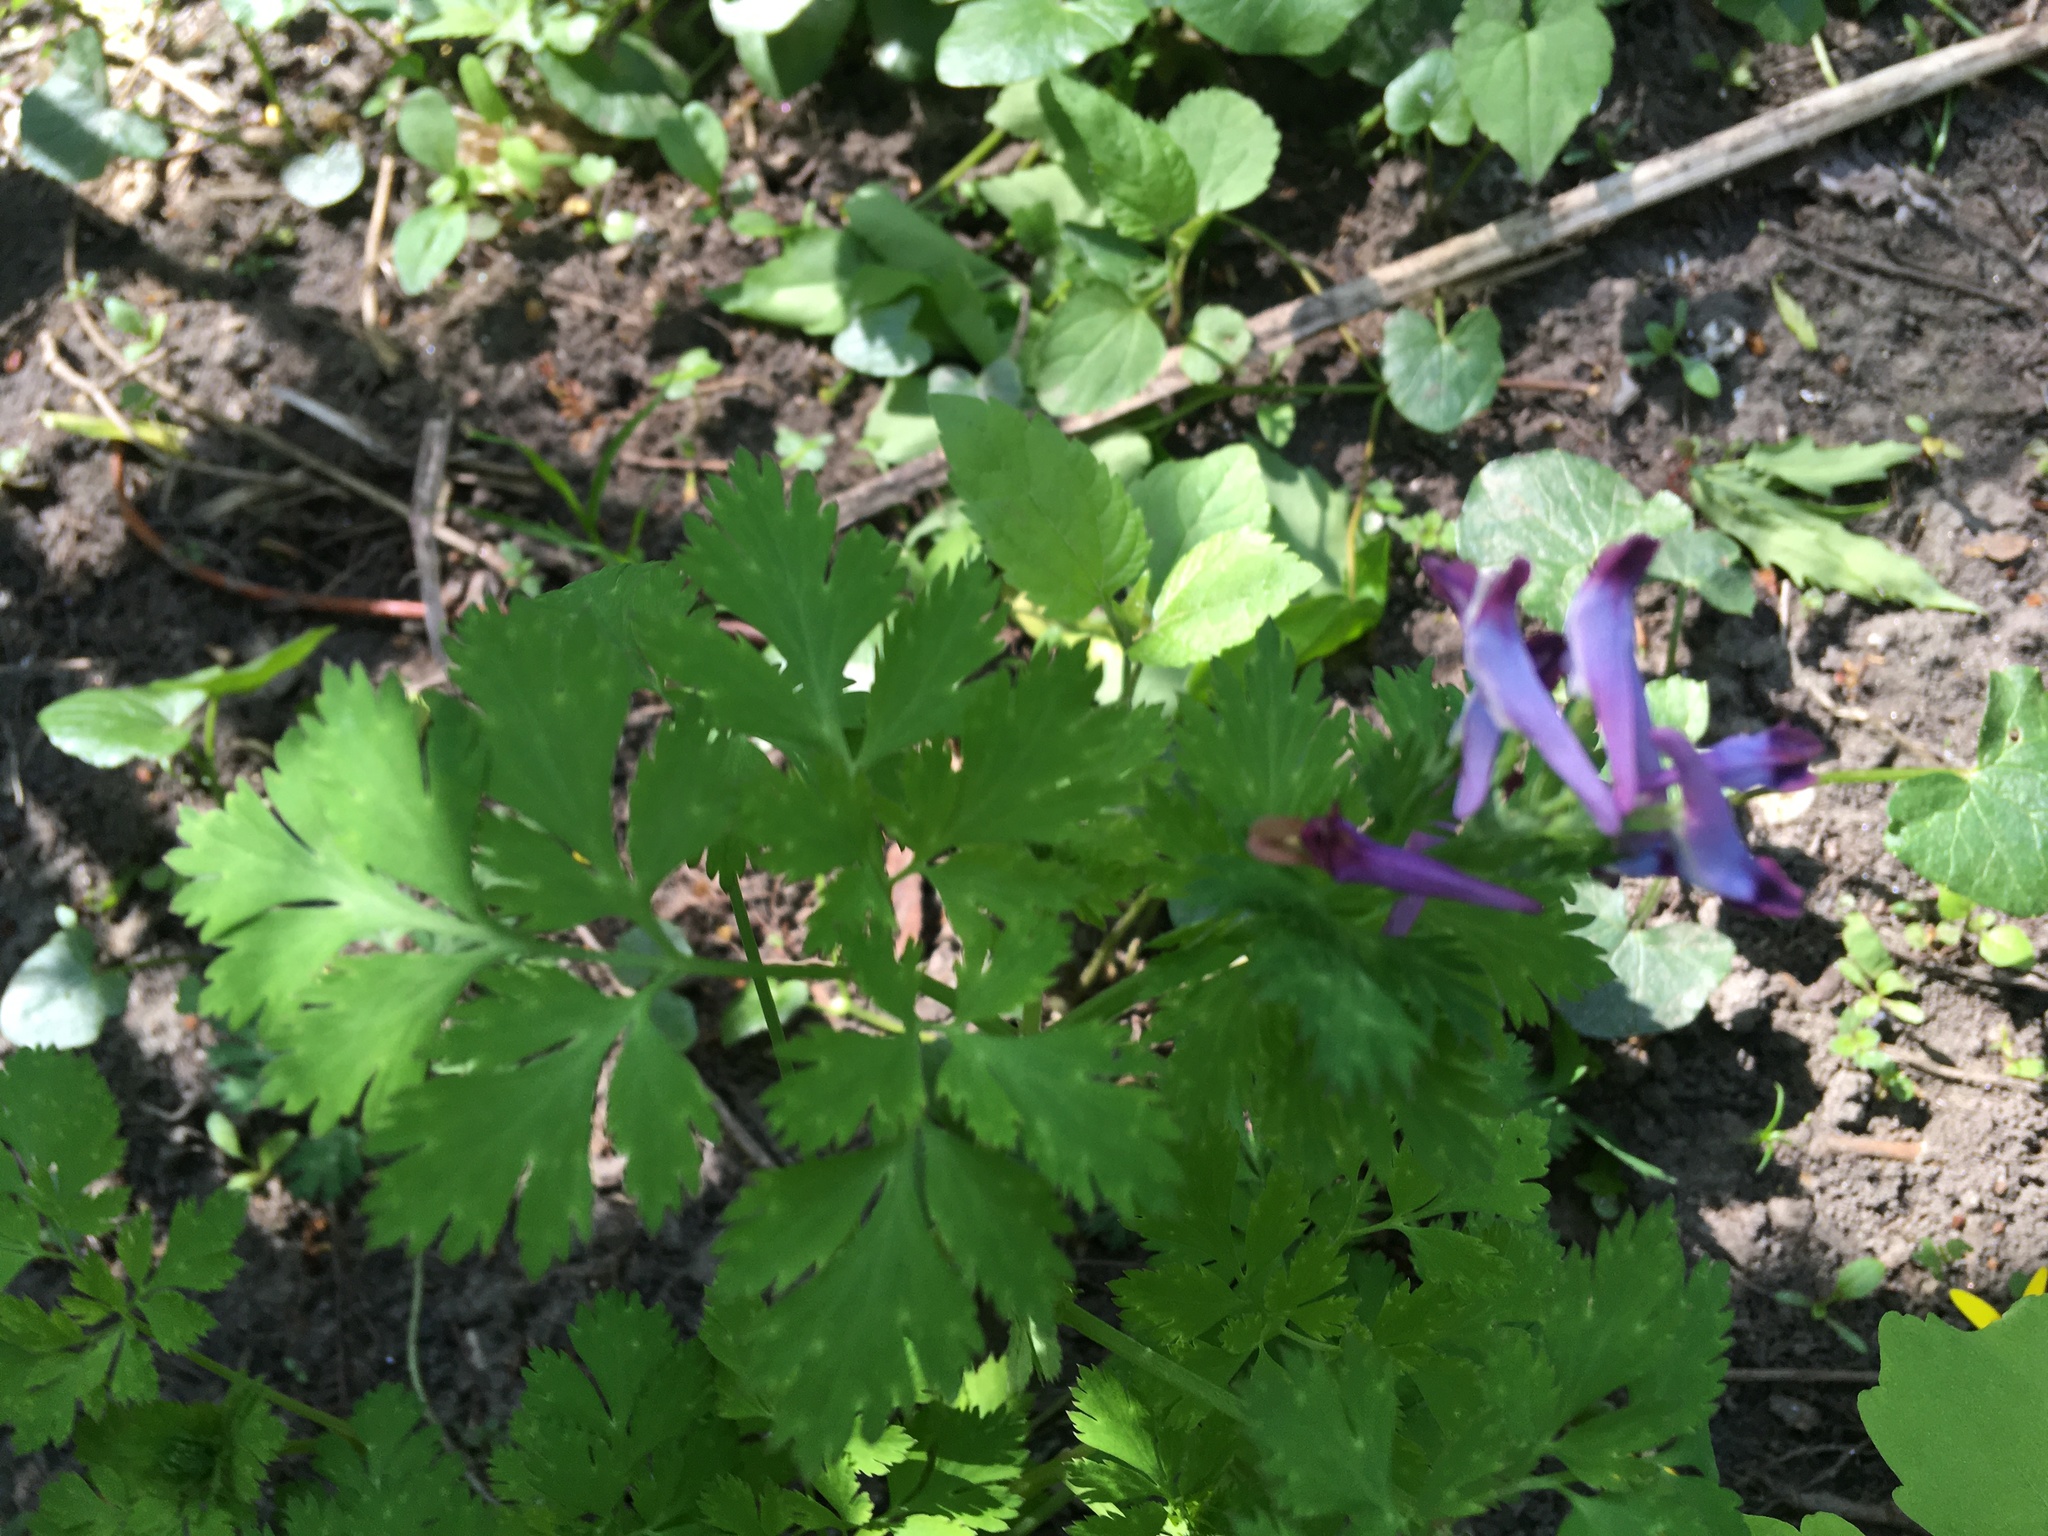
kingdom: Plantae
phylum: Tracheophyta
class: Magnoliopsida
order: Ranunculales
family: Papaveraceae
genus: Corydalis
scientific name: Corydalis incisa
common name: Incised fumewort
